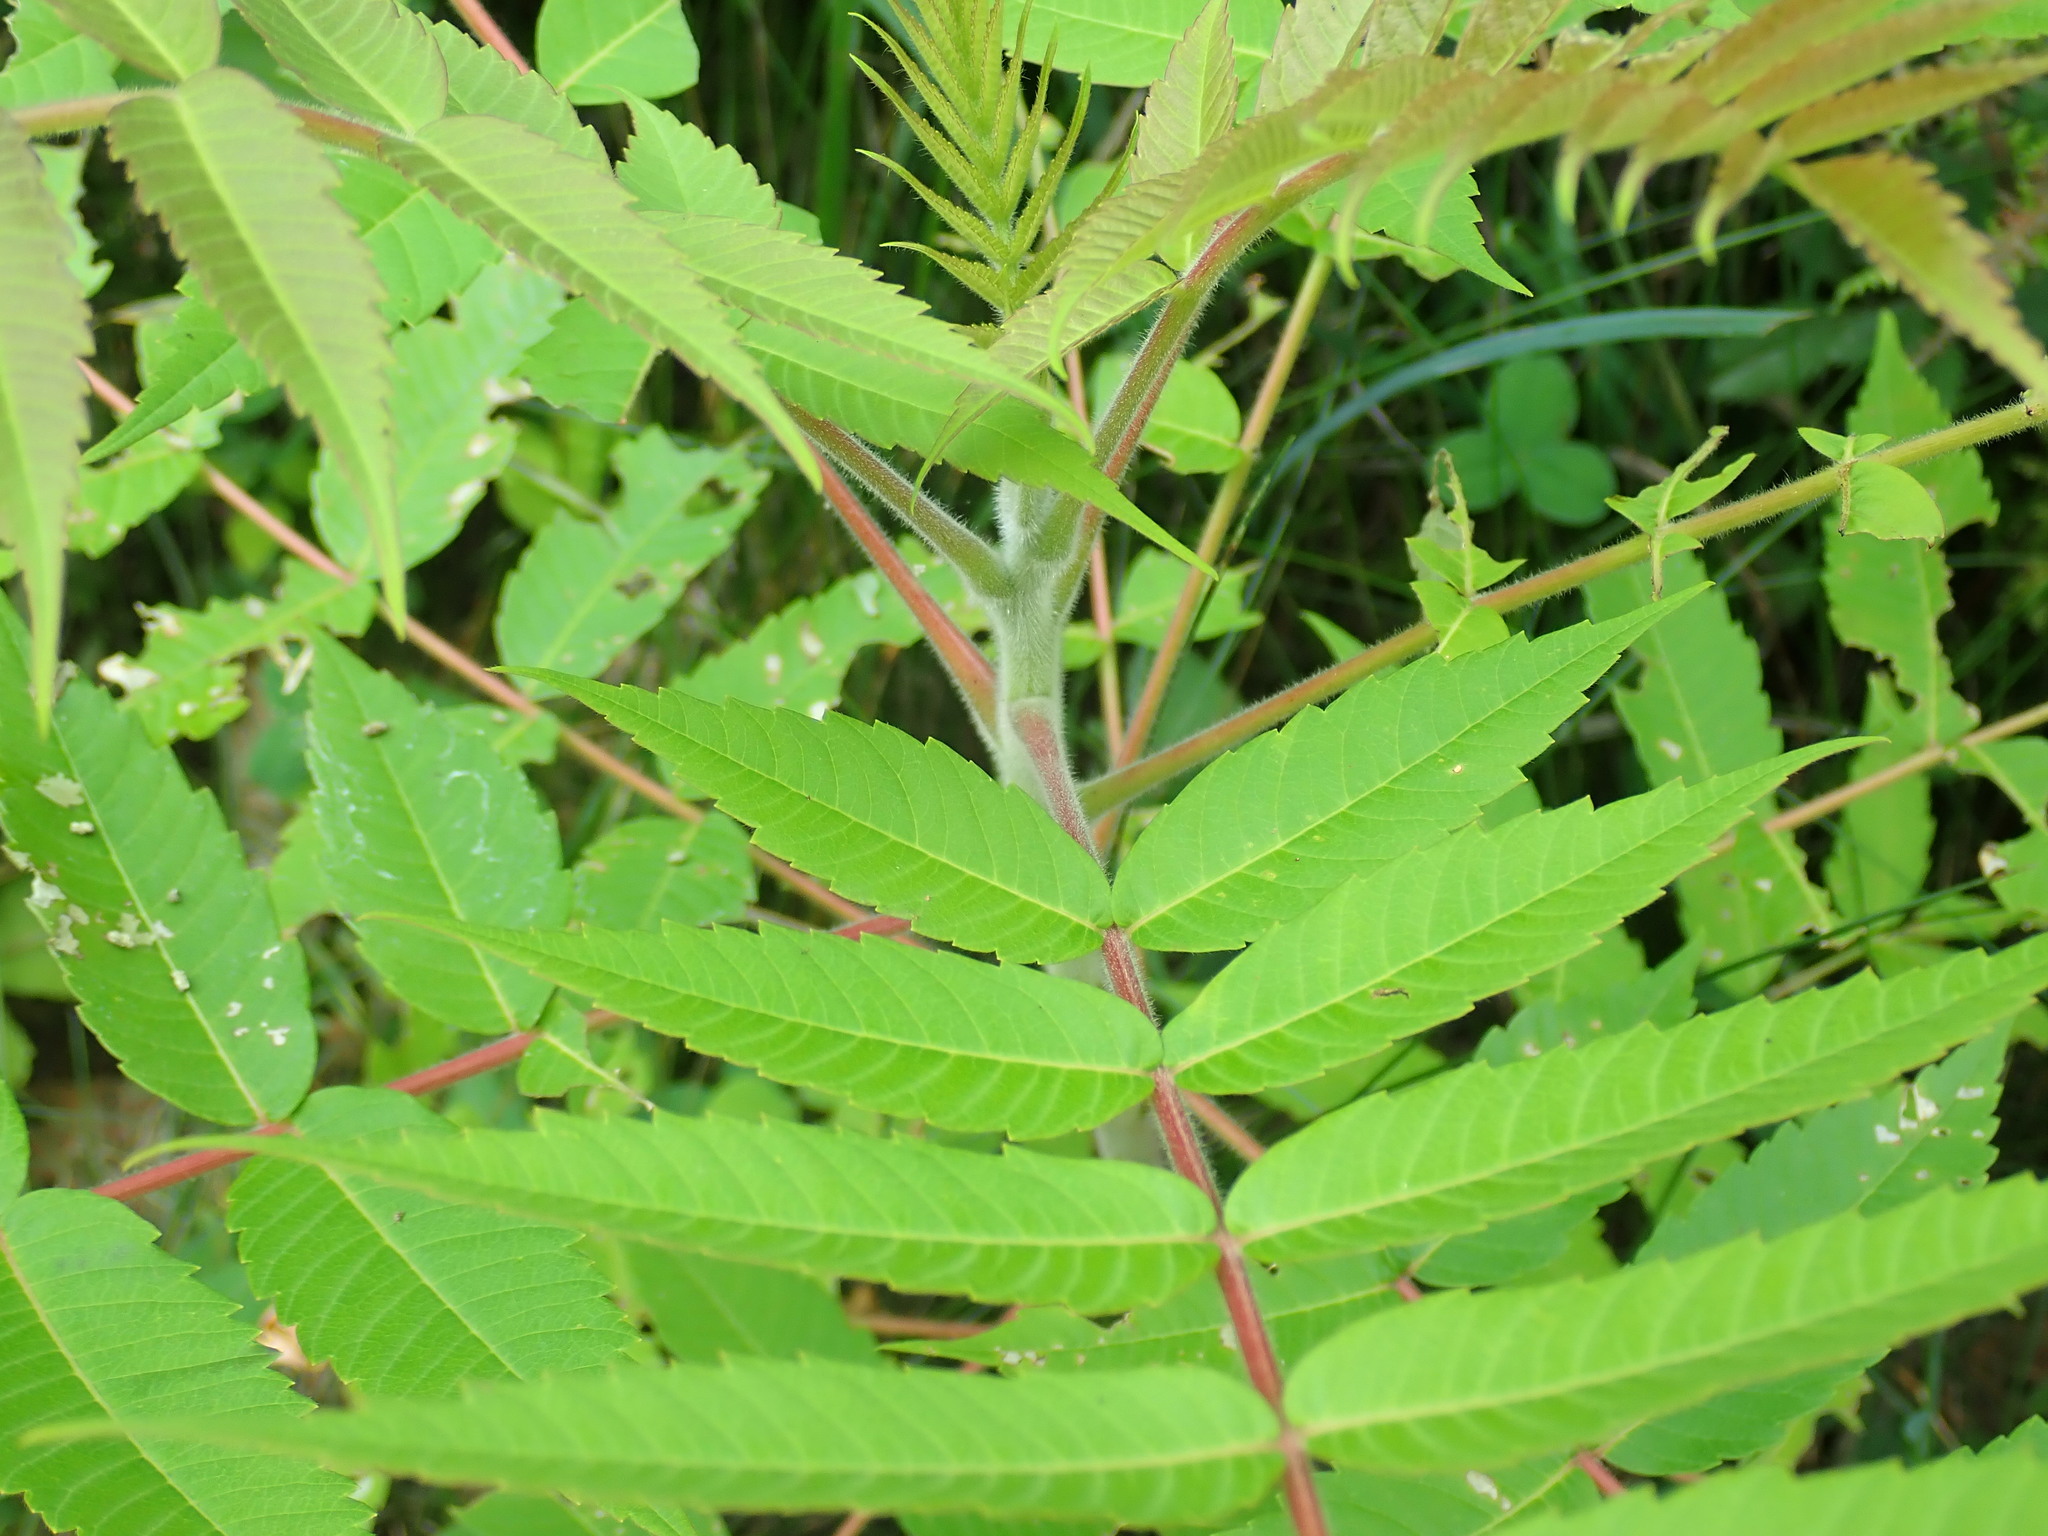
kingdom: Plantae
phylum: Tracheophyta
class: Magnoliopsida
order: Sapindales
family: Anacardiaceae
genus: Rhus
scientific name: Rhus typhina
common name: Staghorn sumac
